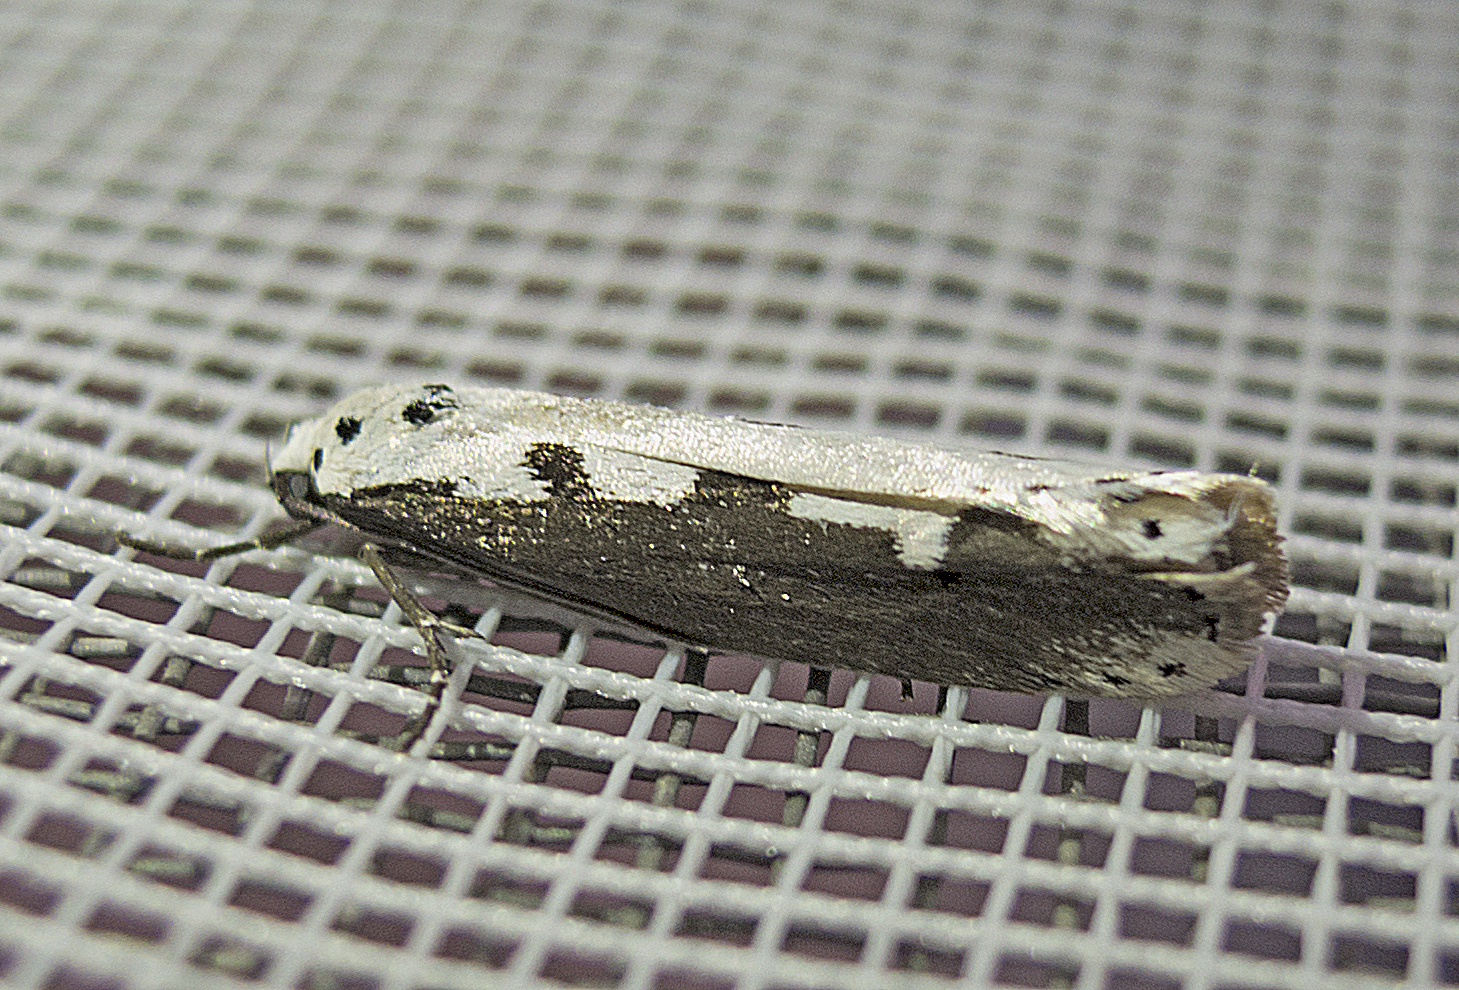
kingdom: Animalia
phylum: Arthropoda
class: Insecta
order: Lepidoptera
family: Ethmiidae
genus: Ethmia
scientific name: Ethmia bipunctella
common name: Bordered ermel
